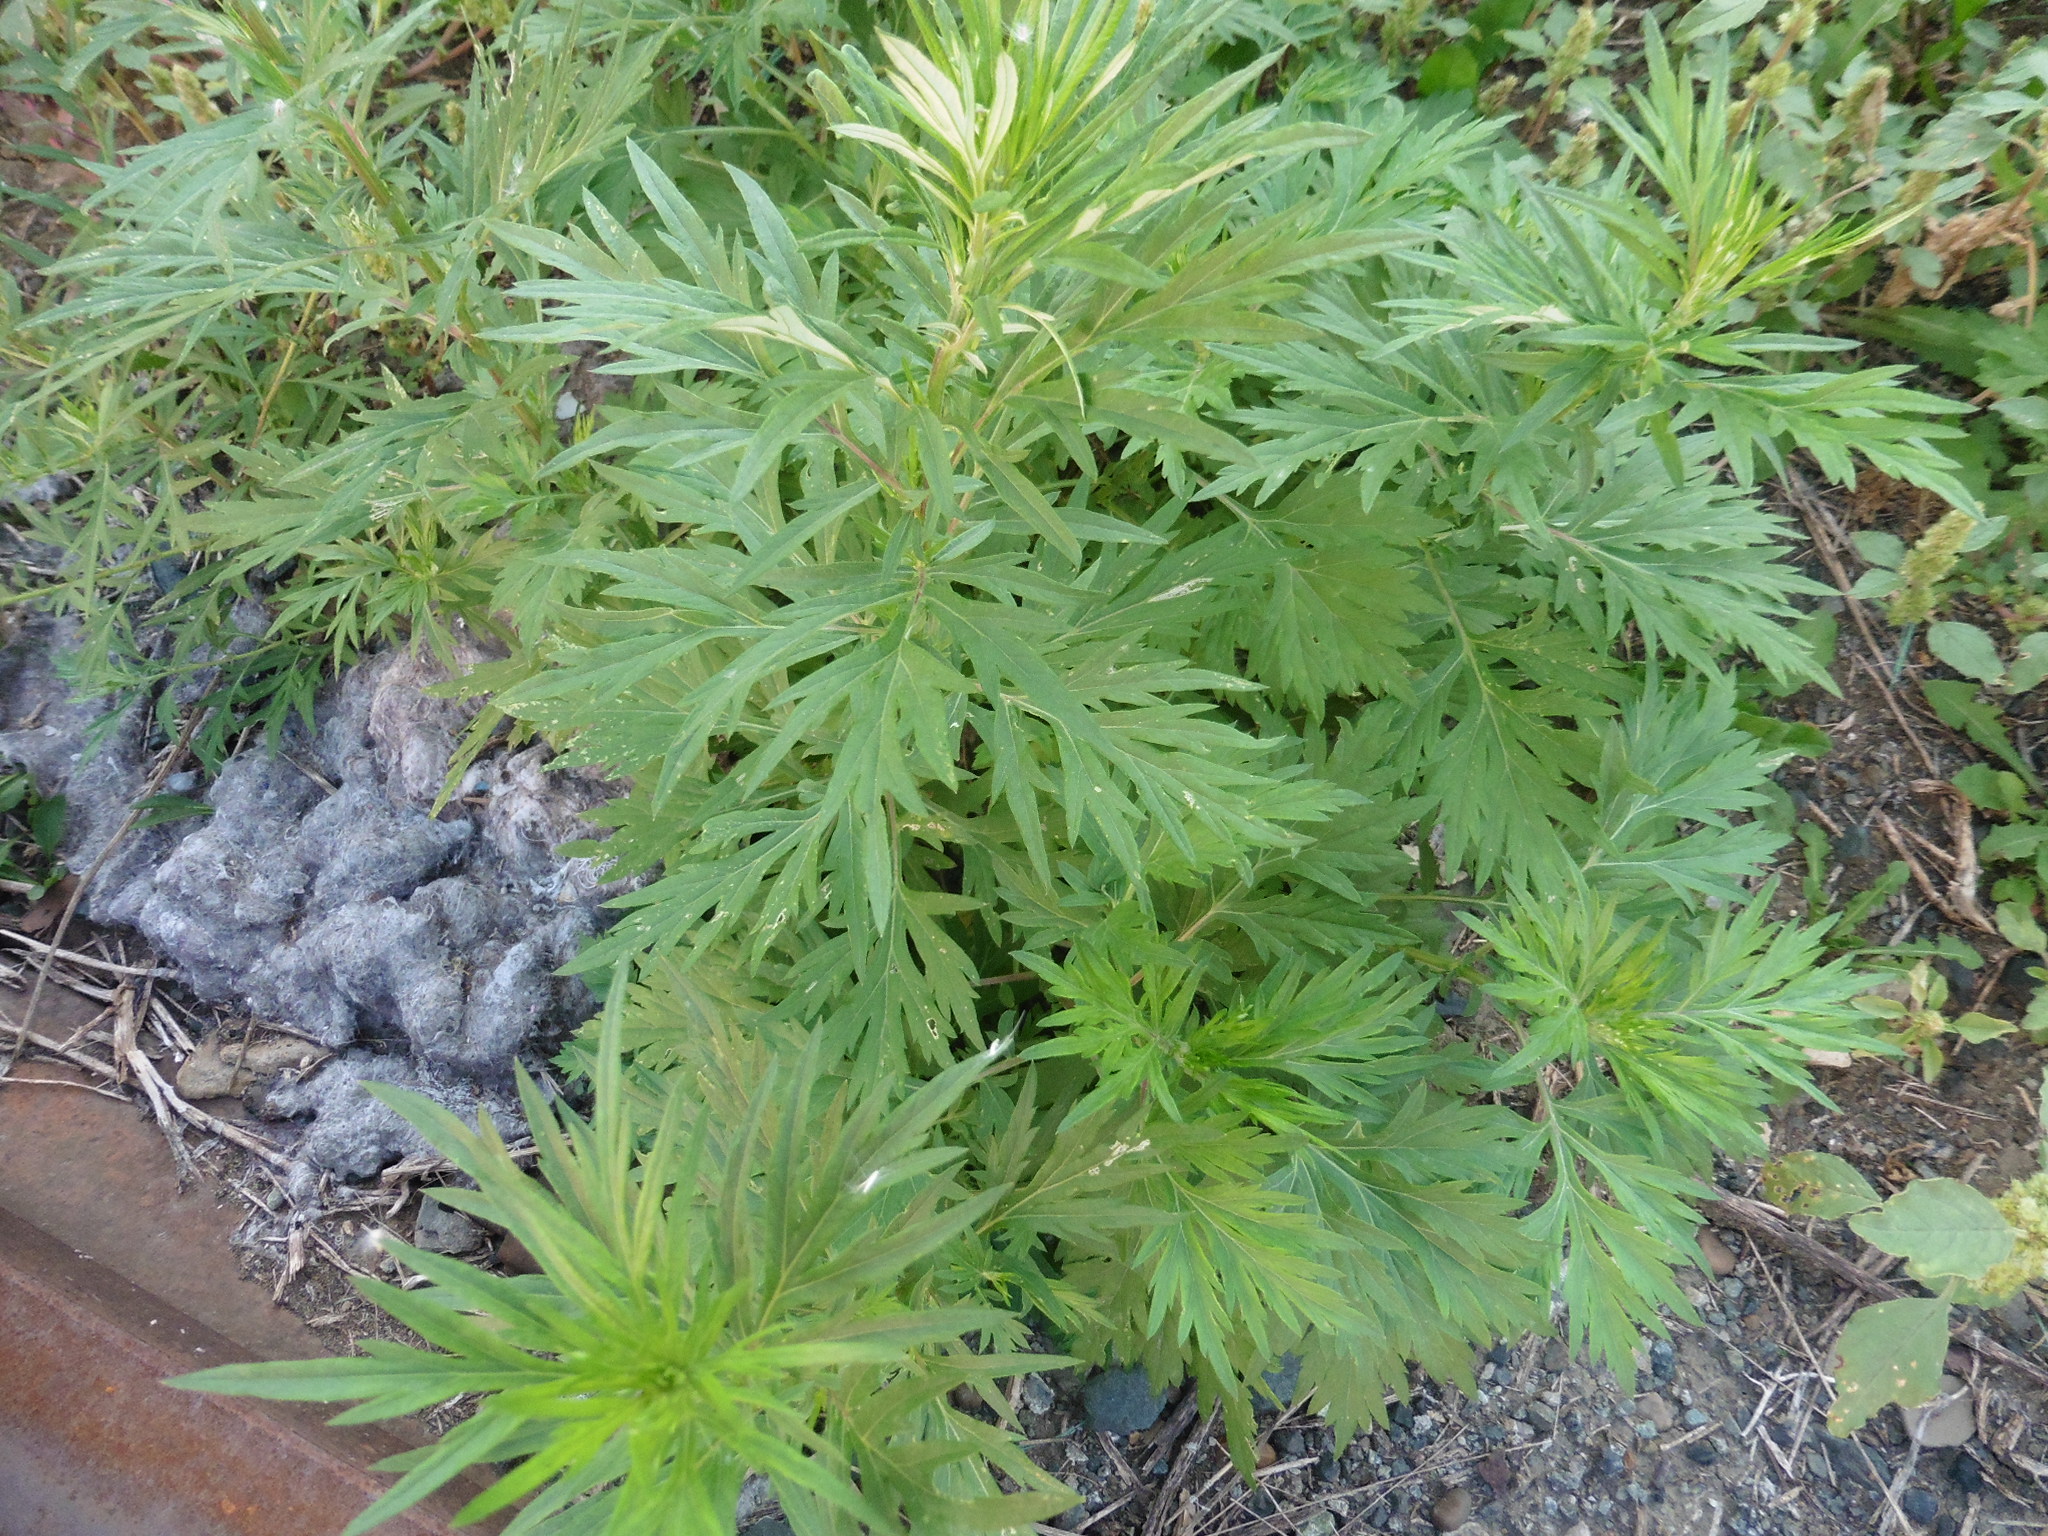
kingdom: Plantae
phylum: Tracheophyta
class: Magnoliopsida
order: Asterales
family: Asteraceae
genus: Artemisia
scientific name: Artemisia vulgaris
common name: Mugwort
